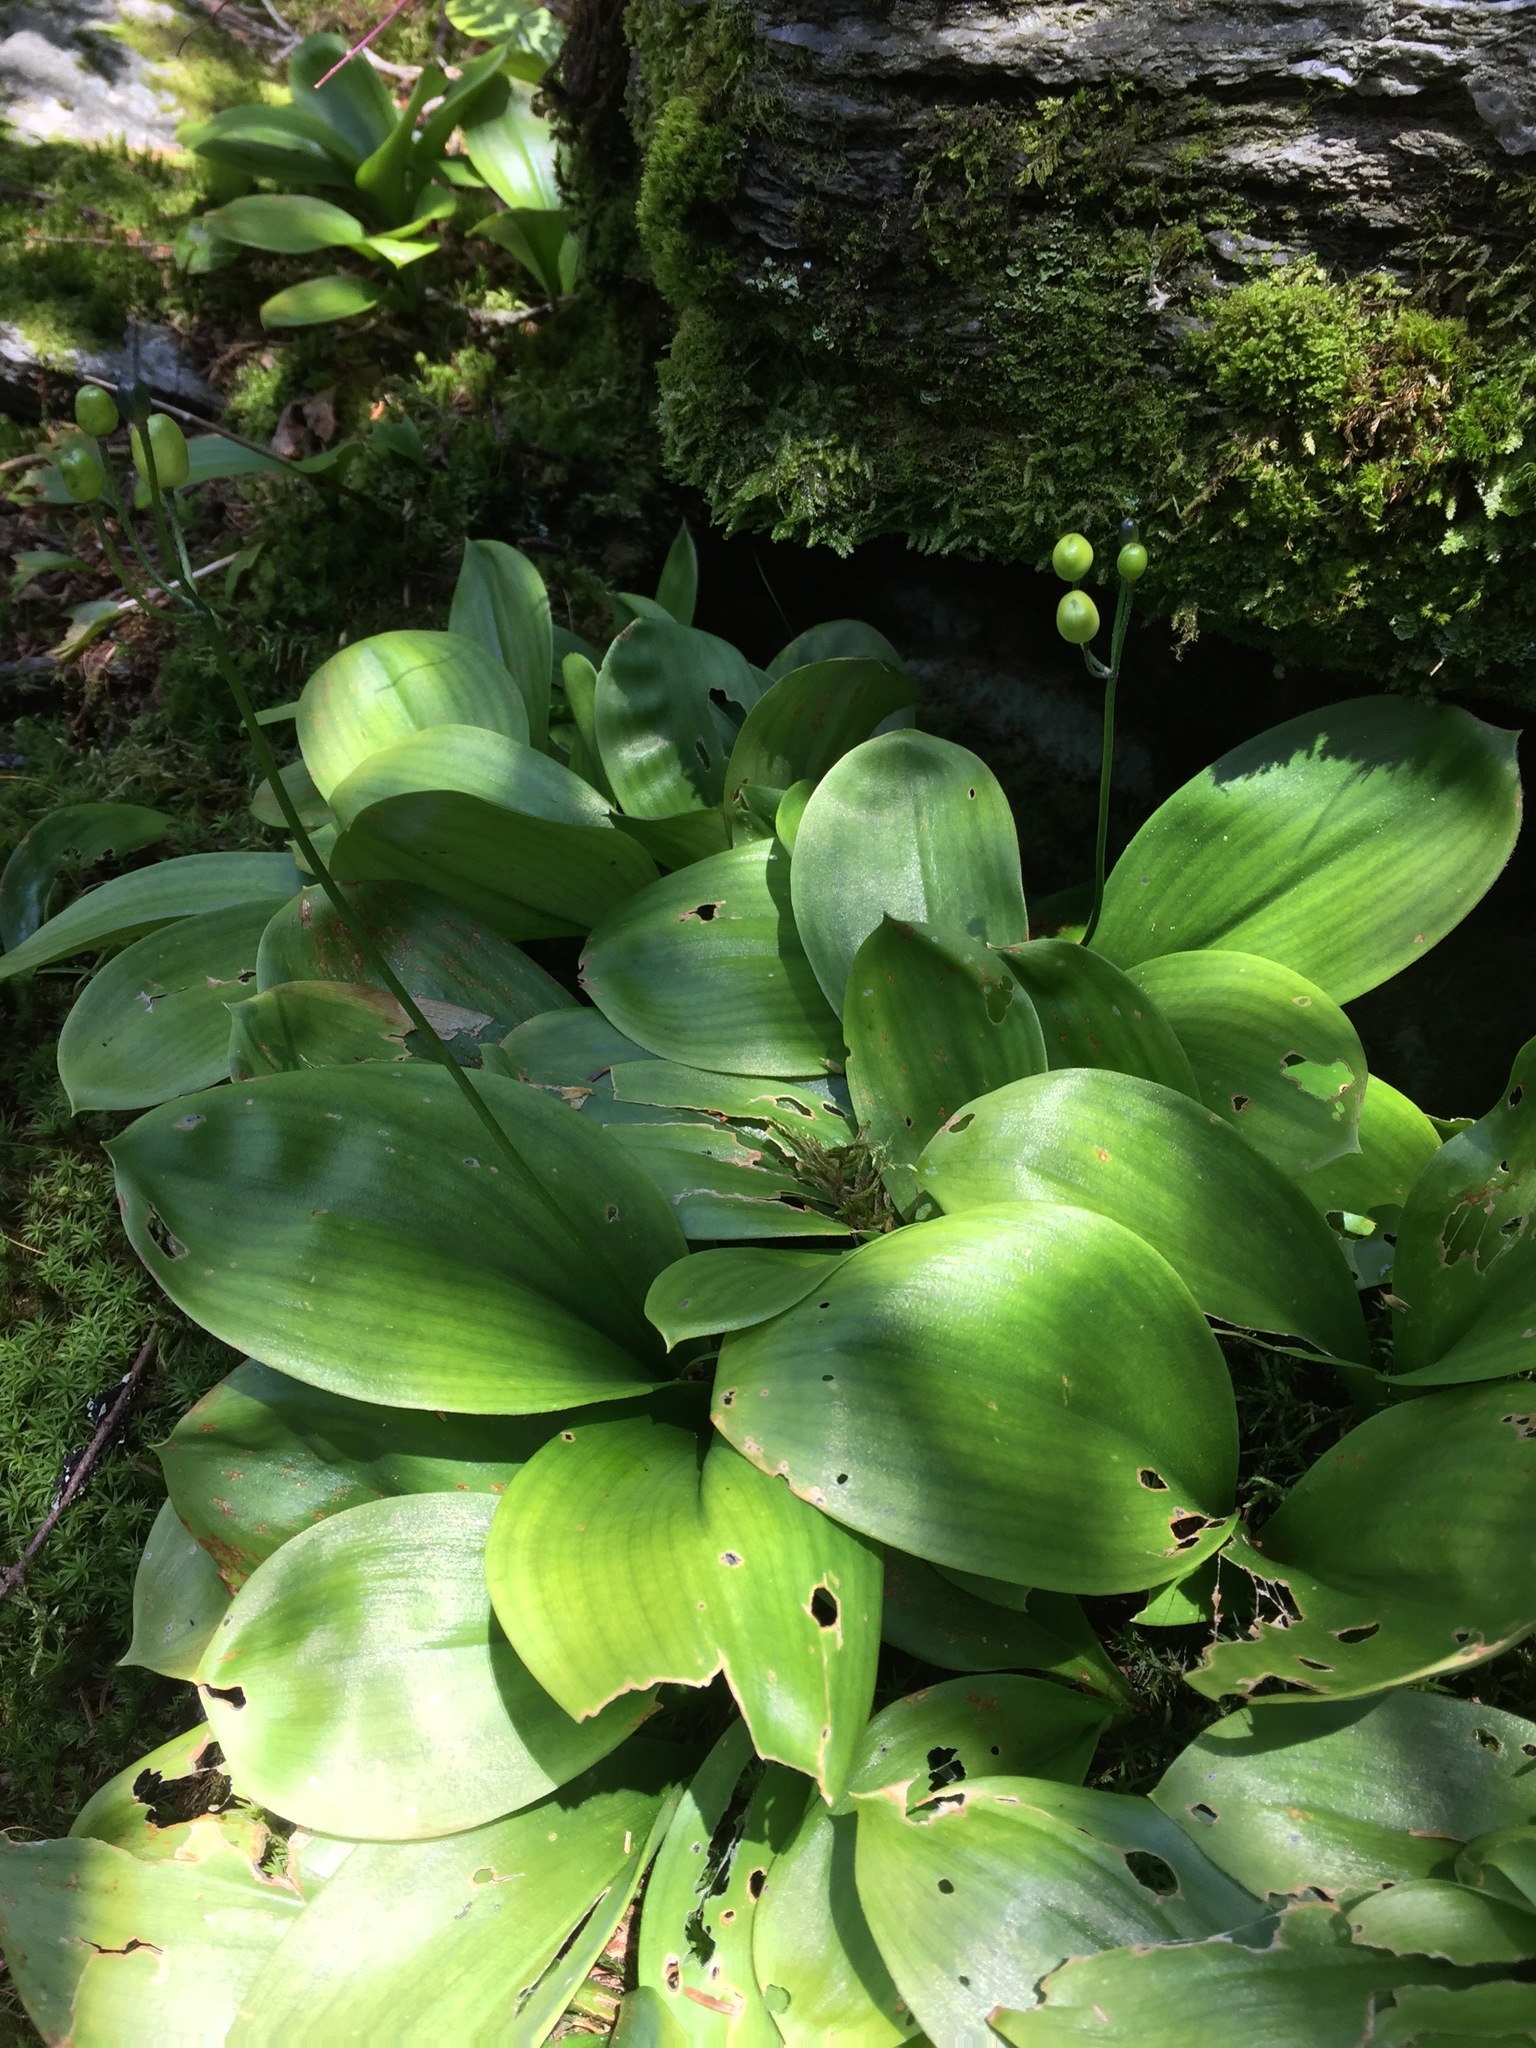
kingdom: Plantae
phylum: Tracheophyta
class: Liliopsida
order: Liliales
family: Liliaceae
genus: Clintonia
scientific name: Clintonia borealis
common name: Yellow clintonia
